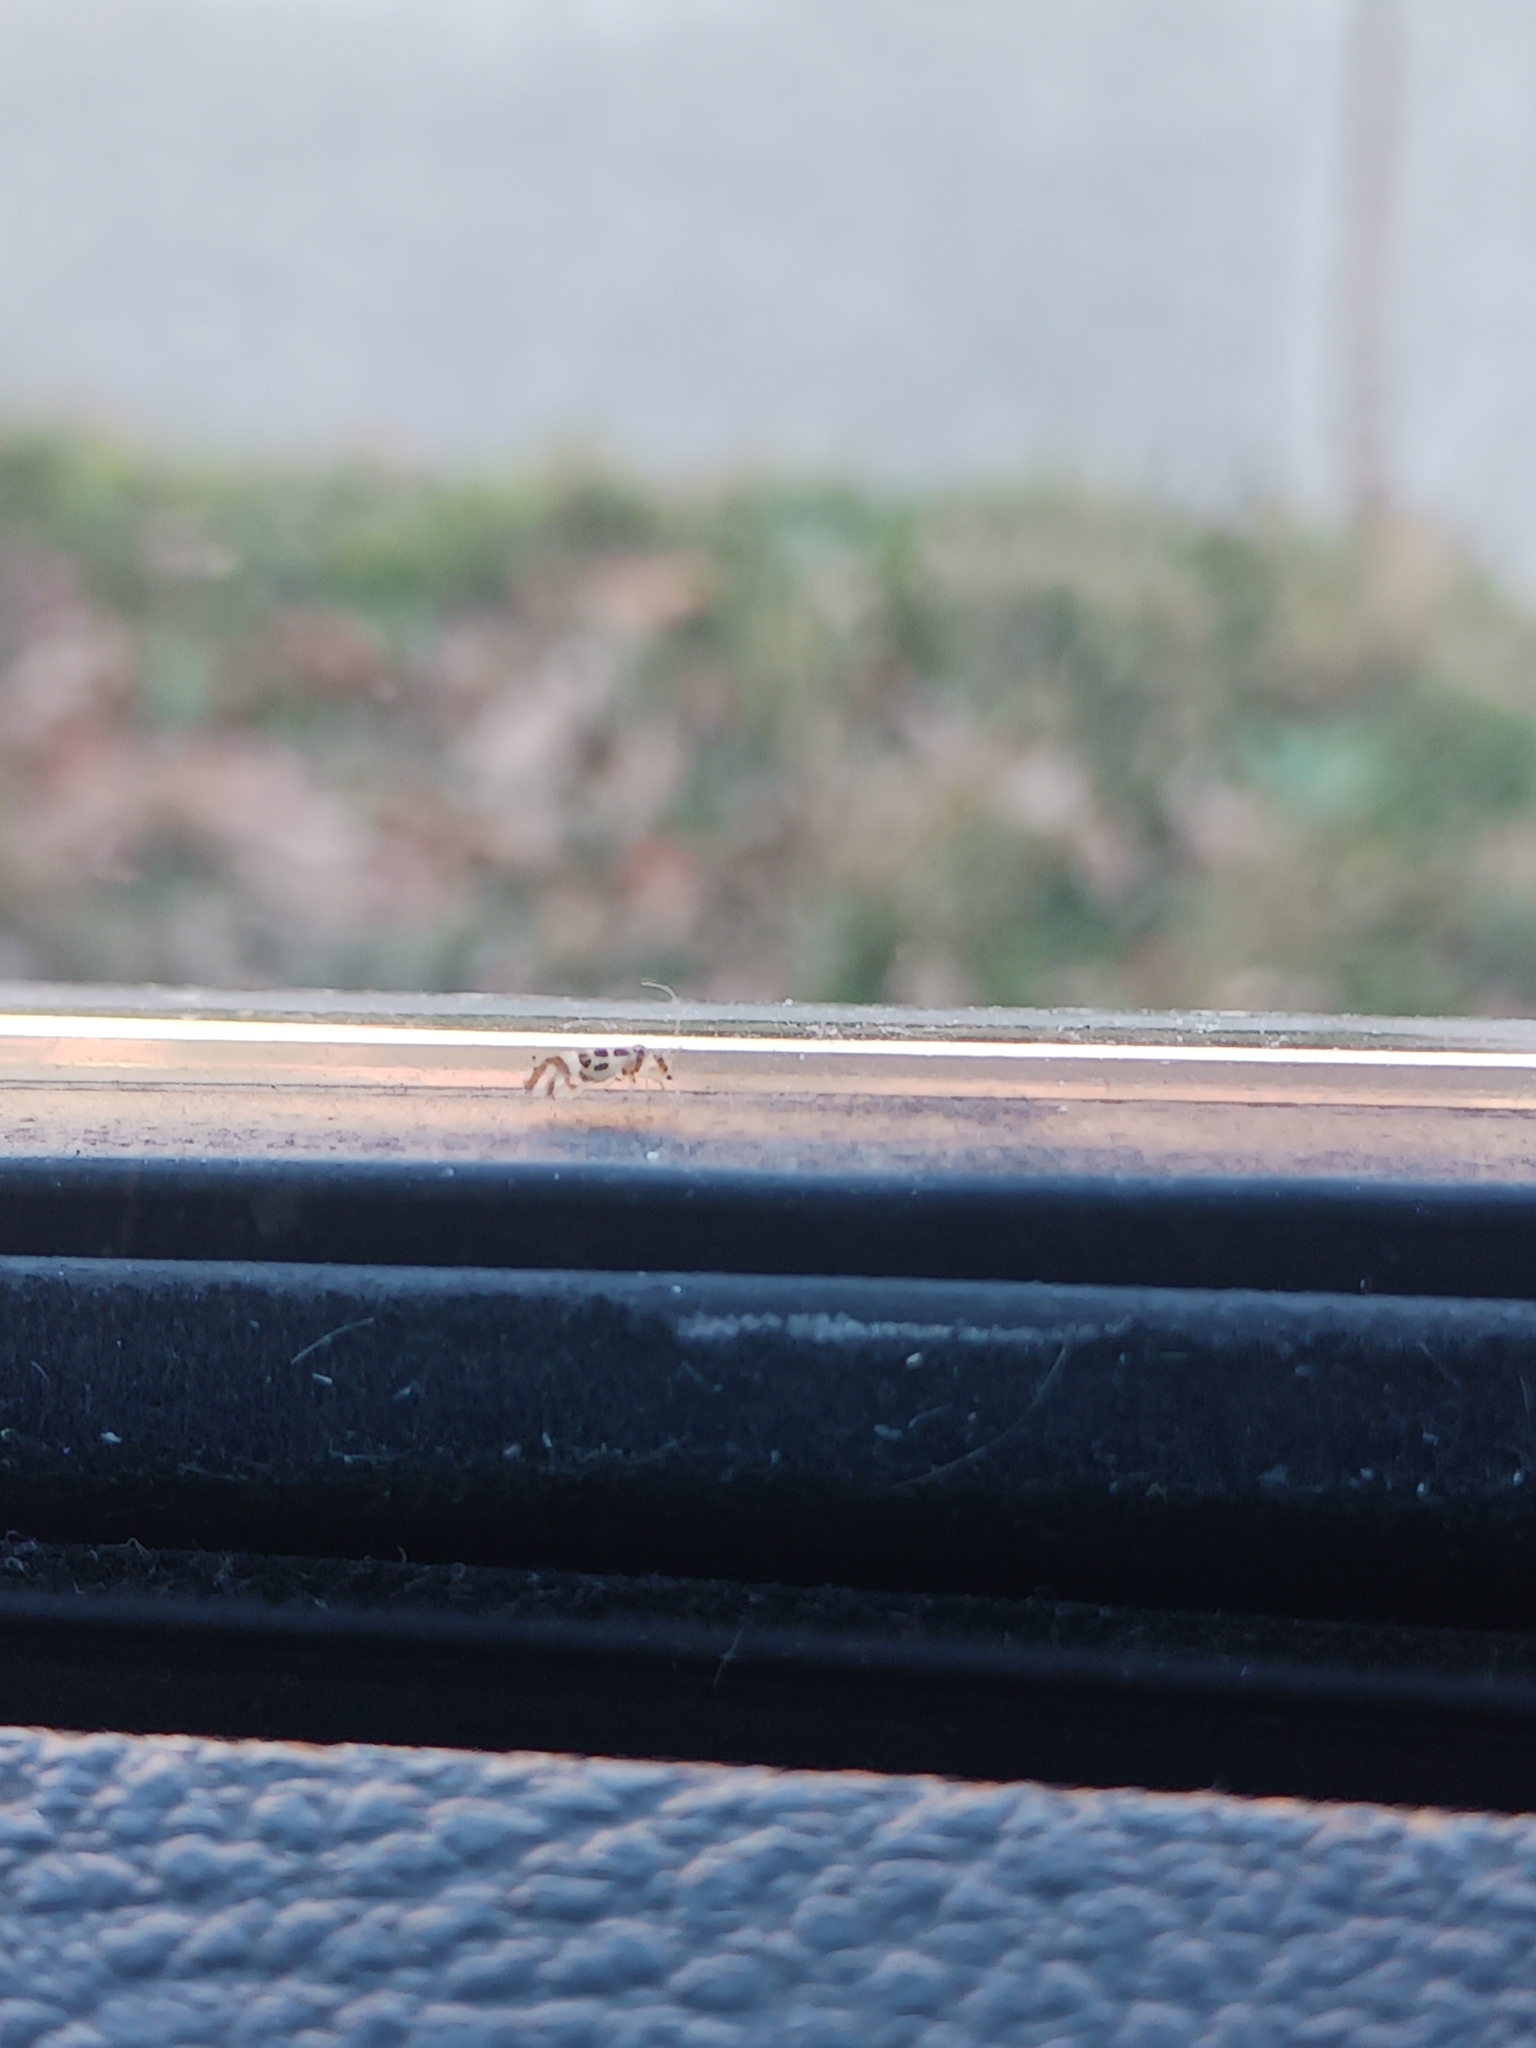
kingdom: Animalia
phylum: Arthropoda
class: Insecta
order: Psocodea
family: Stenopsocidae
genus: Graphopsocus
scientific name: Graphopsocus cruciatus
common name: Lizard bark louse
